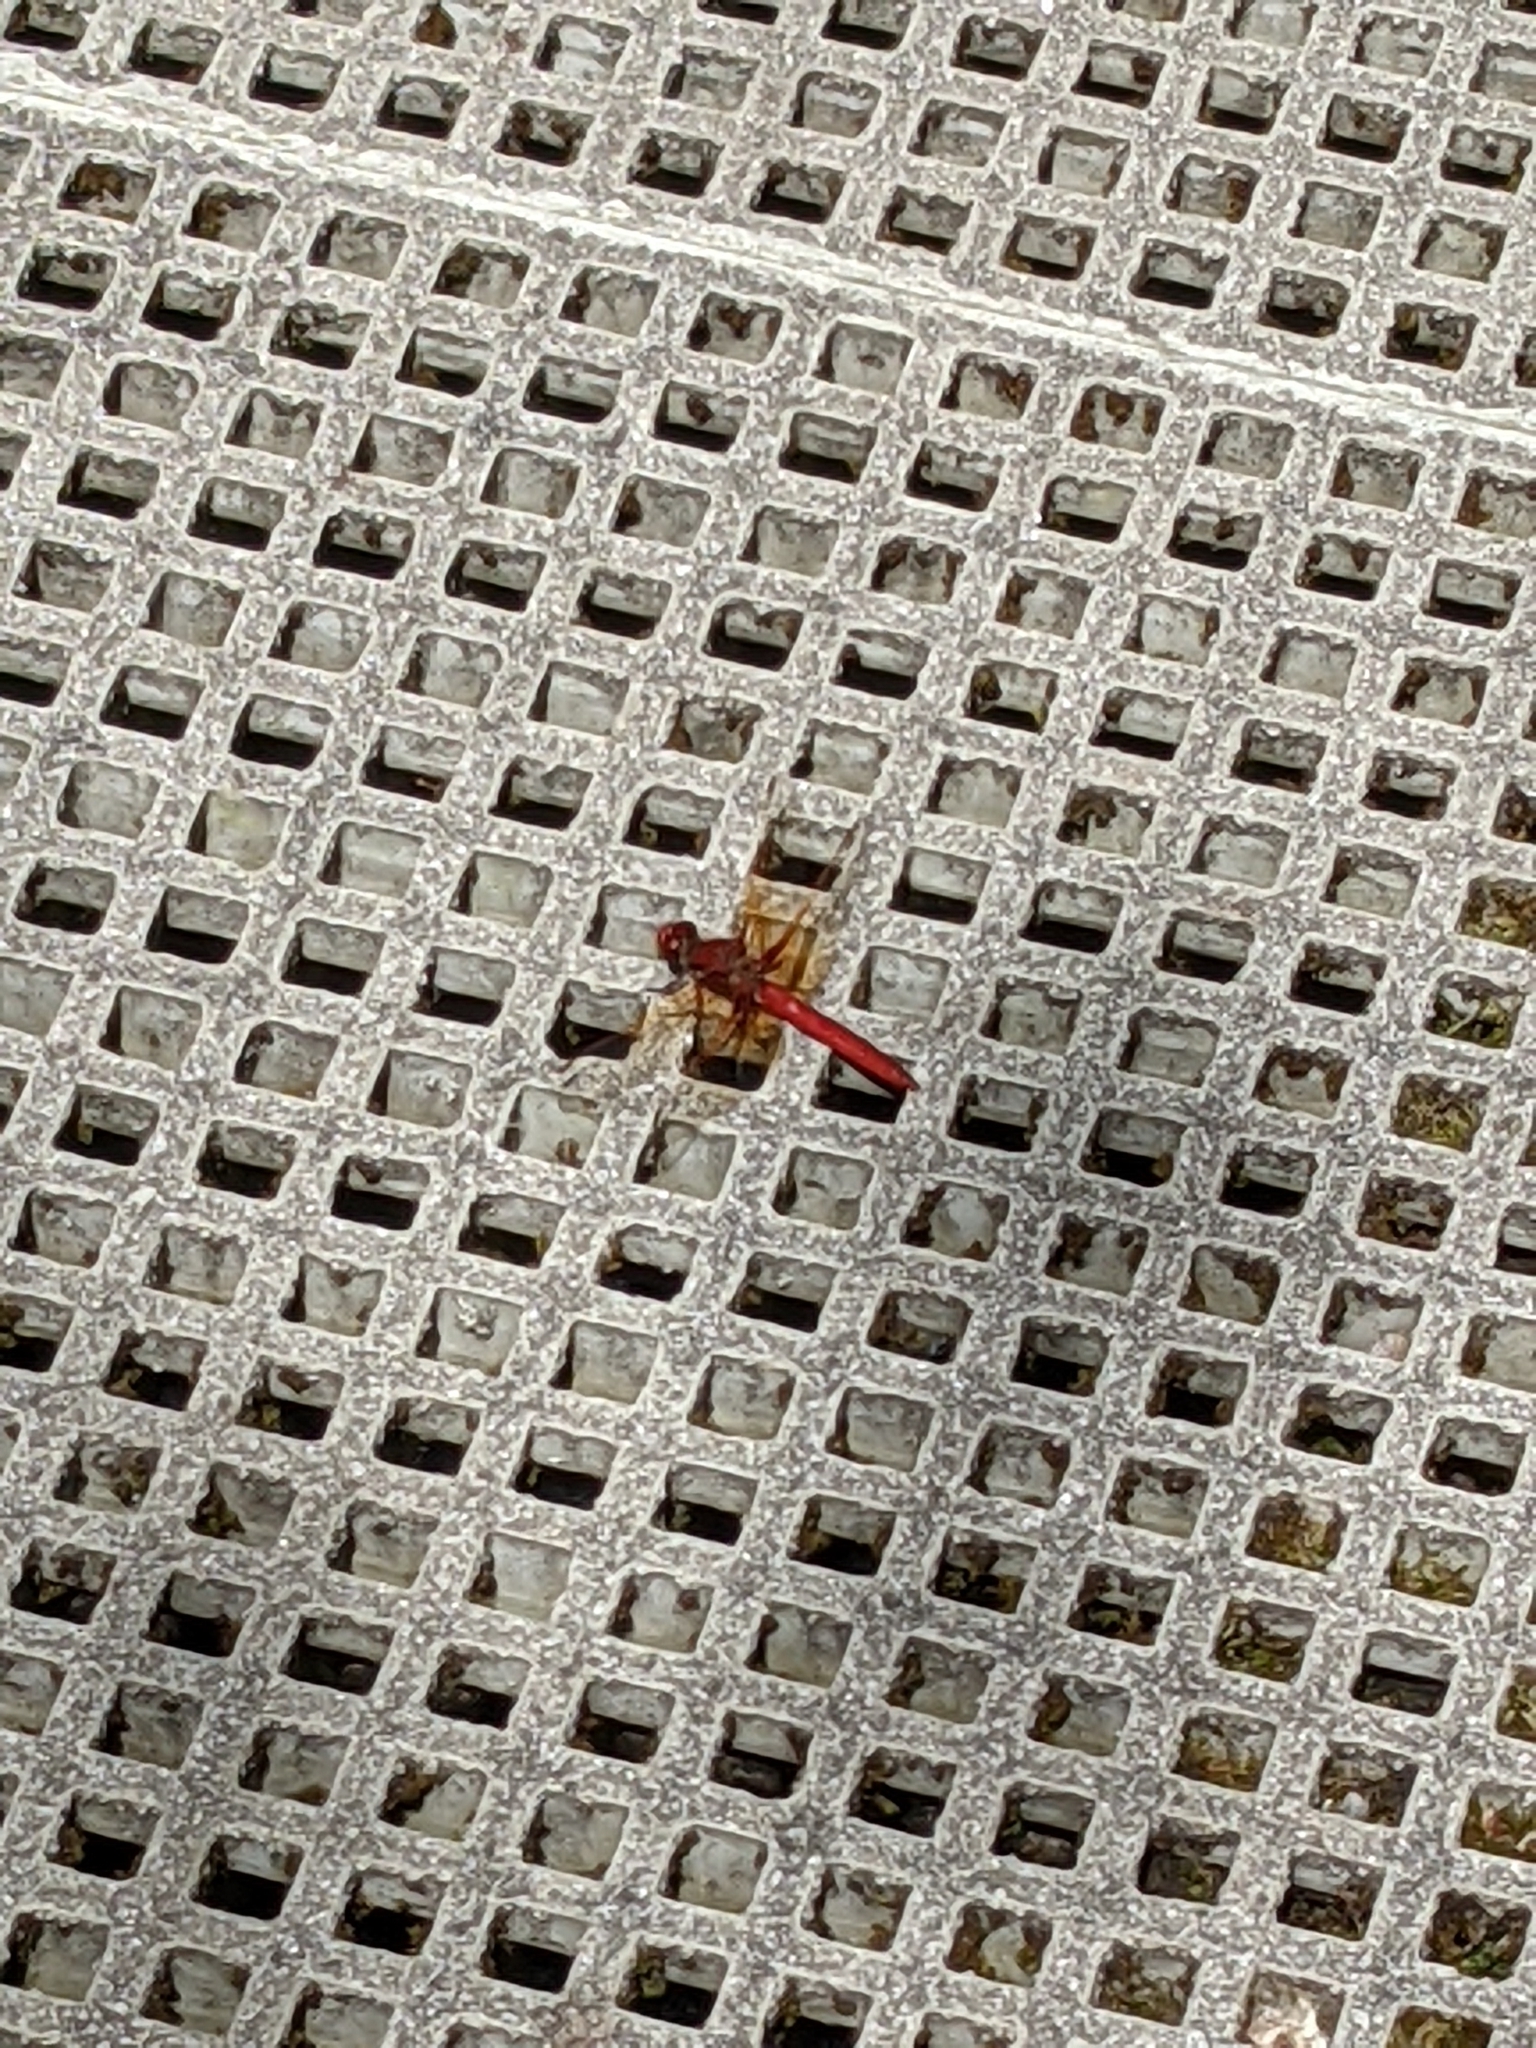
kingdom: Animalia
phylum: Arthropoda
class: Insecta
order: Odonata
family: Libellulidae
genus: Sympetrum
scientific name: Sympetrum illotum
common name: Cardinal meadowhawk
